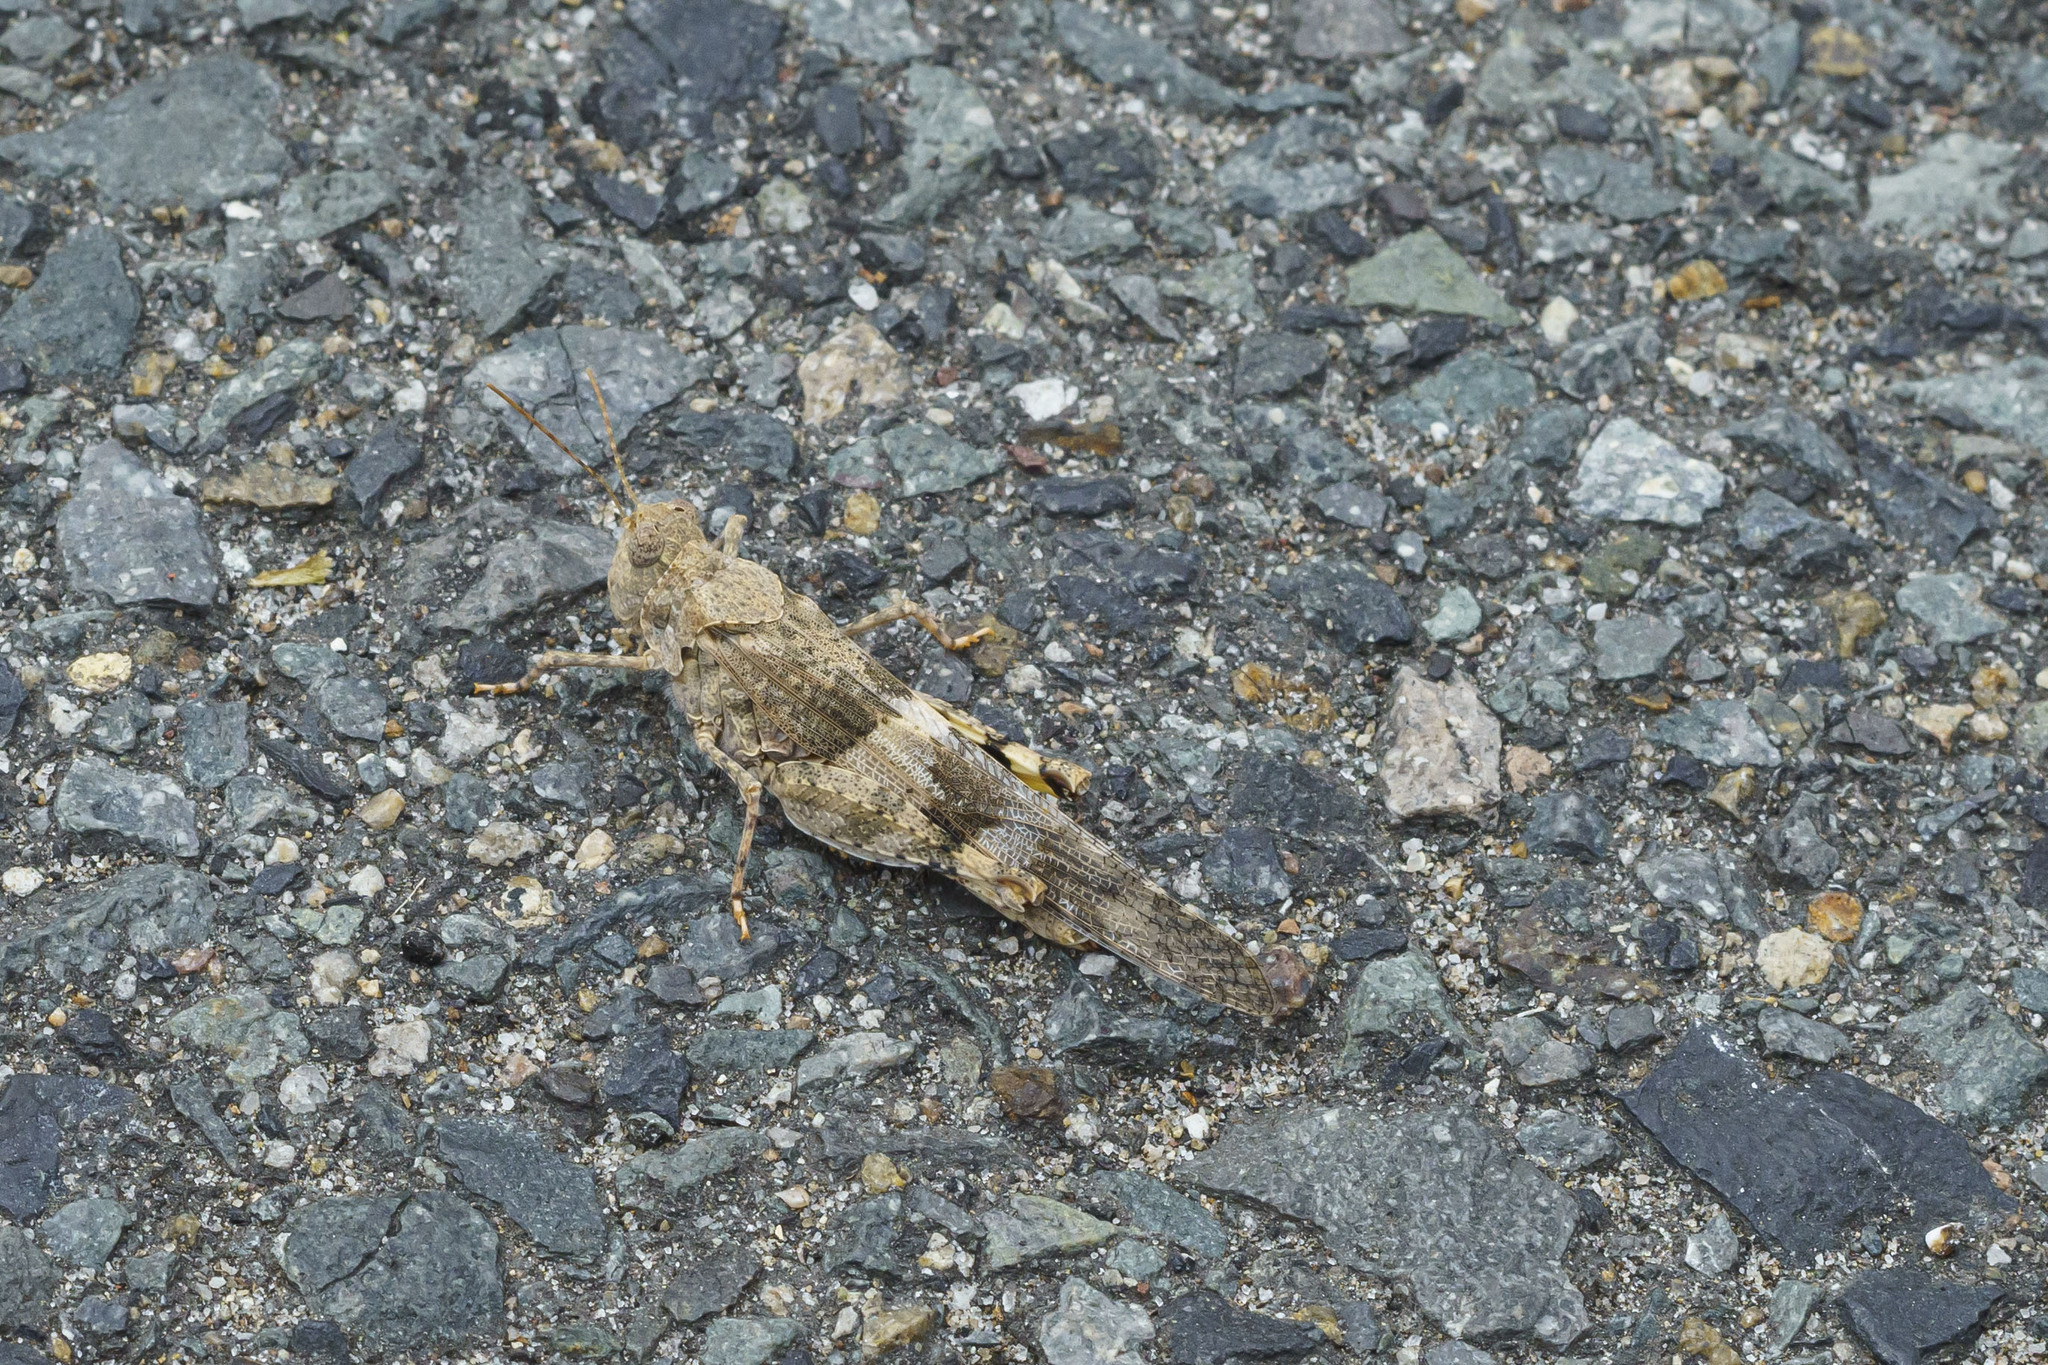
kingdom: Animalia
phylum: Arthropoda
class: Insecta
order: Orthoptera
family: Acrididae
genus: Trimerotropis
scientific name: Trimerotropis pallidipennis
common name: Pallid-winged grasshopper
